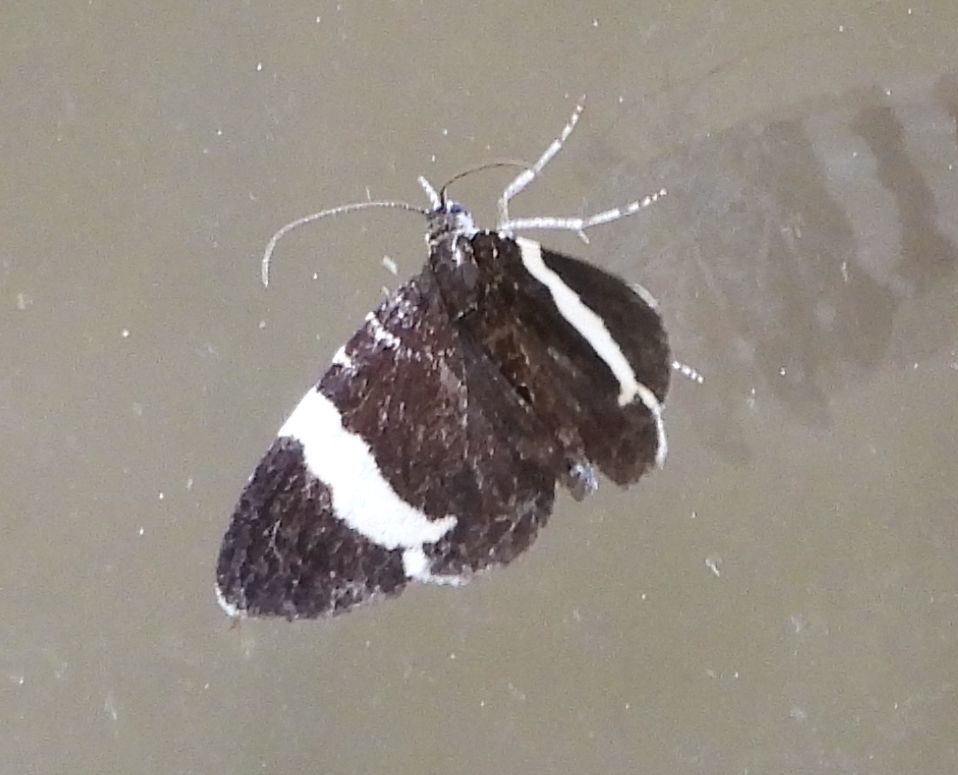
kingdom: Animalia
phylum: Arthropoda
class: Insecta
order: Lepidoptera
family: Geometridae
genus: Trichodezia
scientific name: Trichodezia albovittata
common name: White striped black
